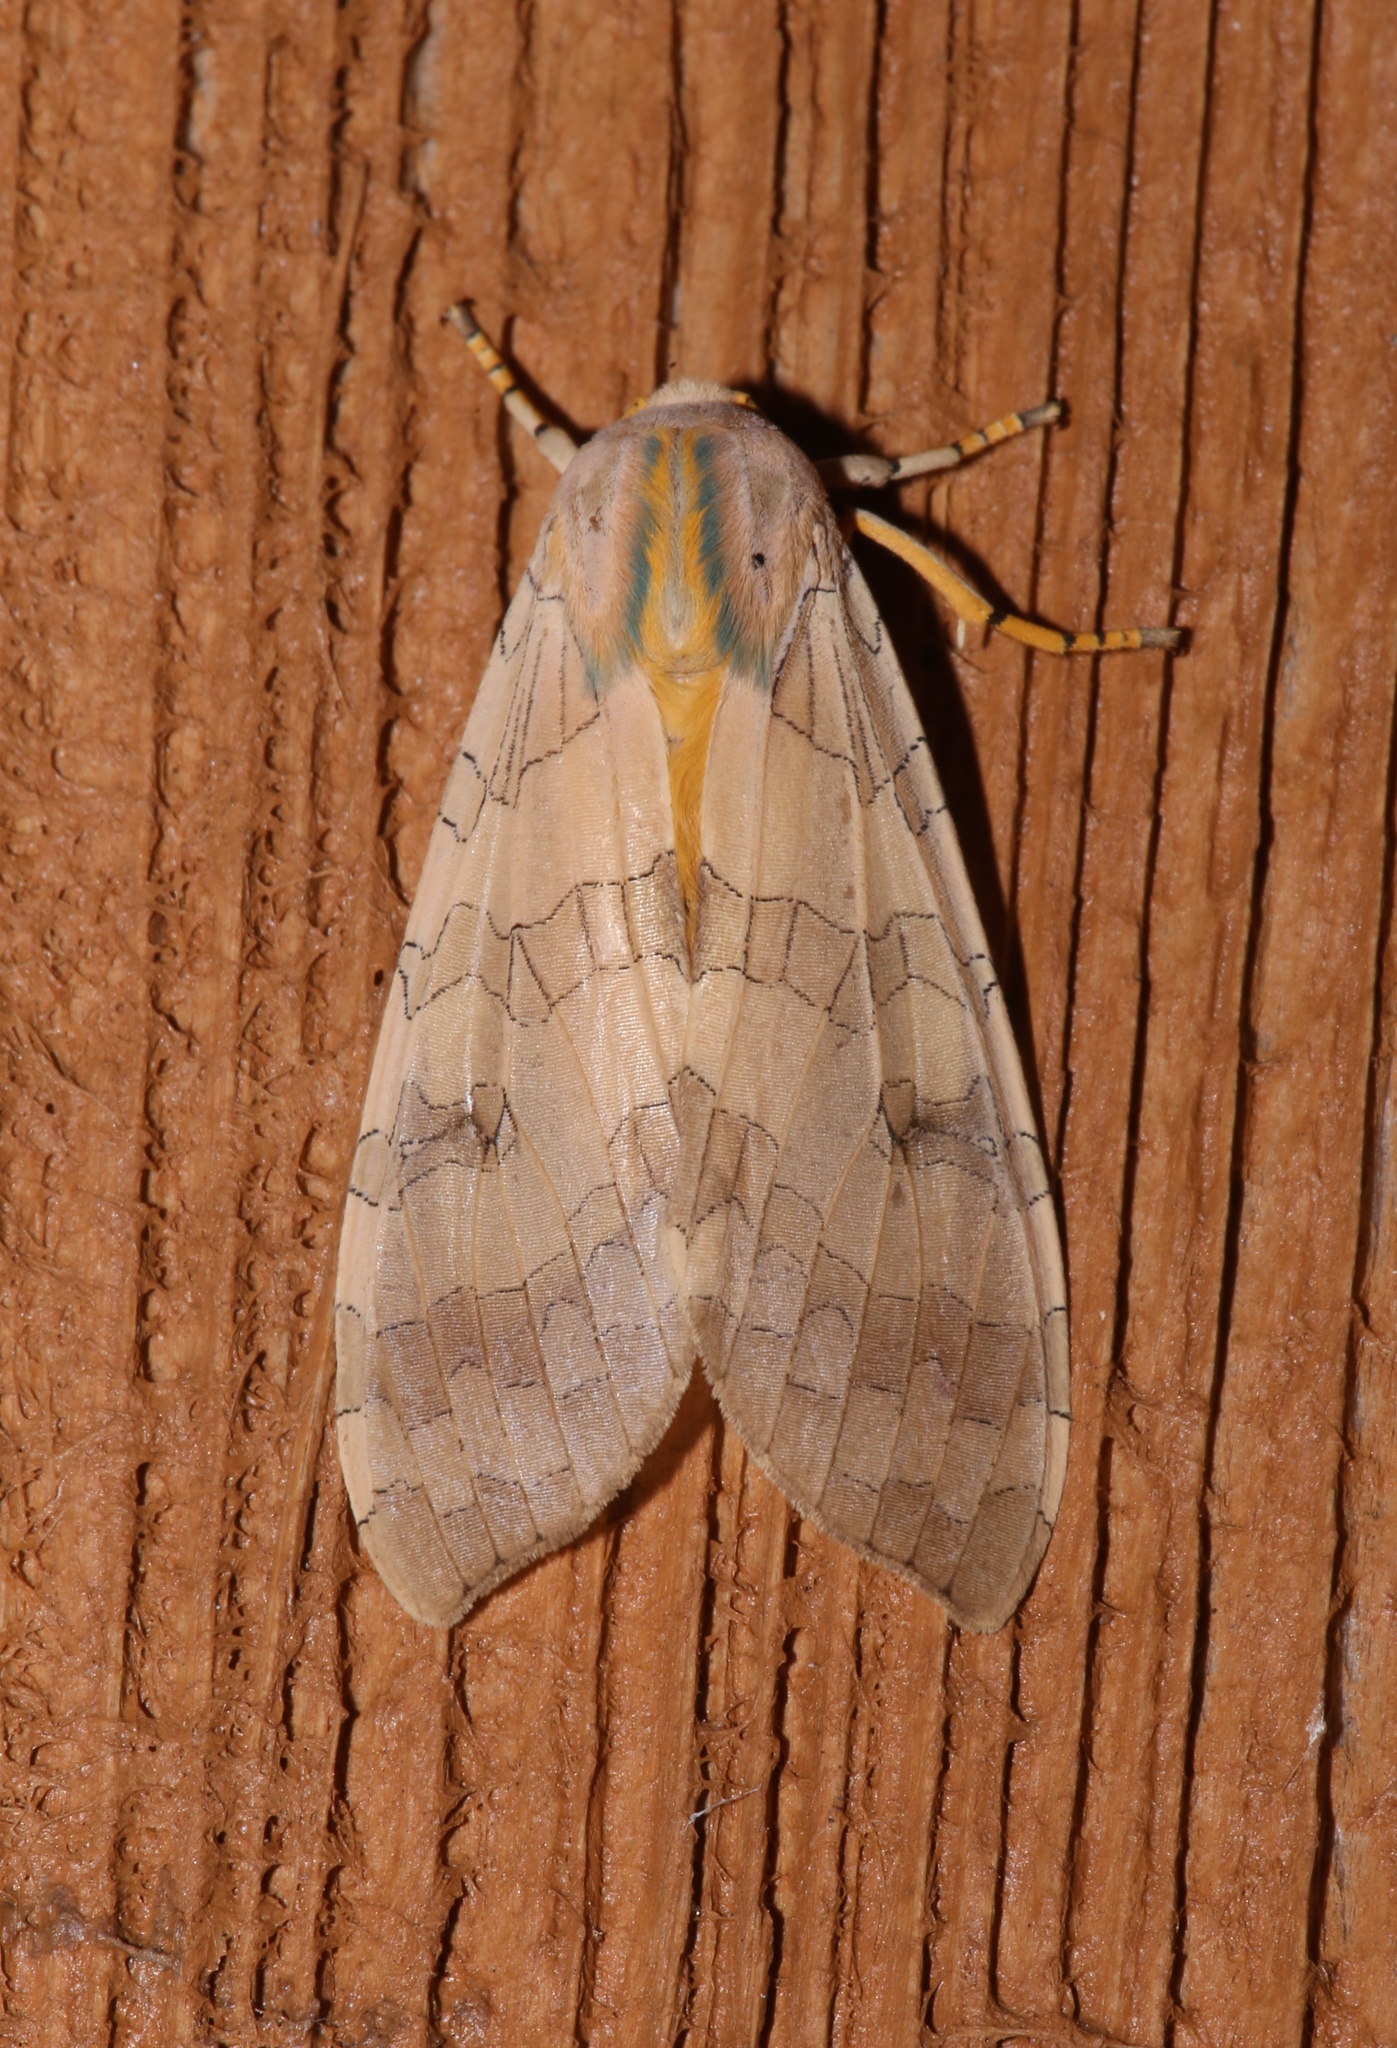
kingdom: Animalia
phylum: Arthropoda
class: Insecta
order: Lepidoptera
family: Erebidae
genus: Halysidota
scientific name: Halysidota
